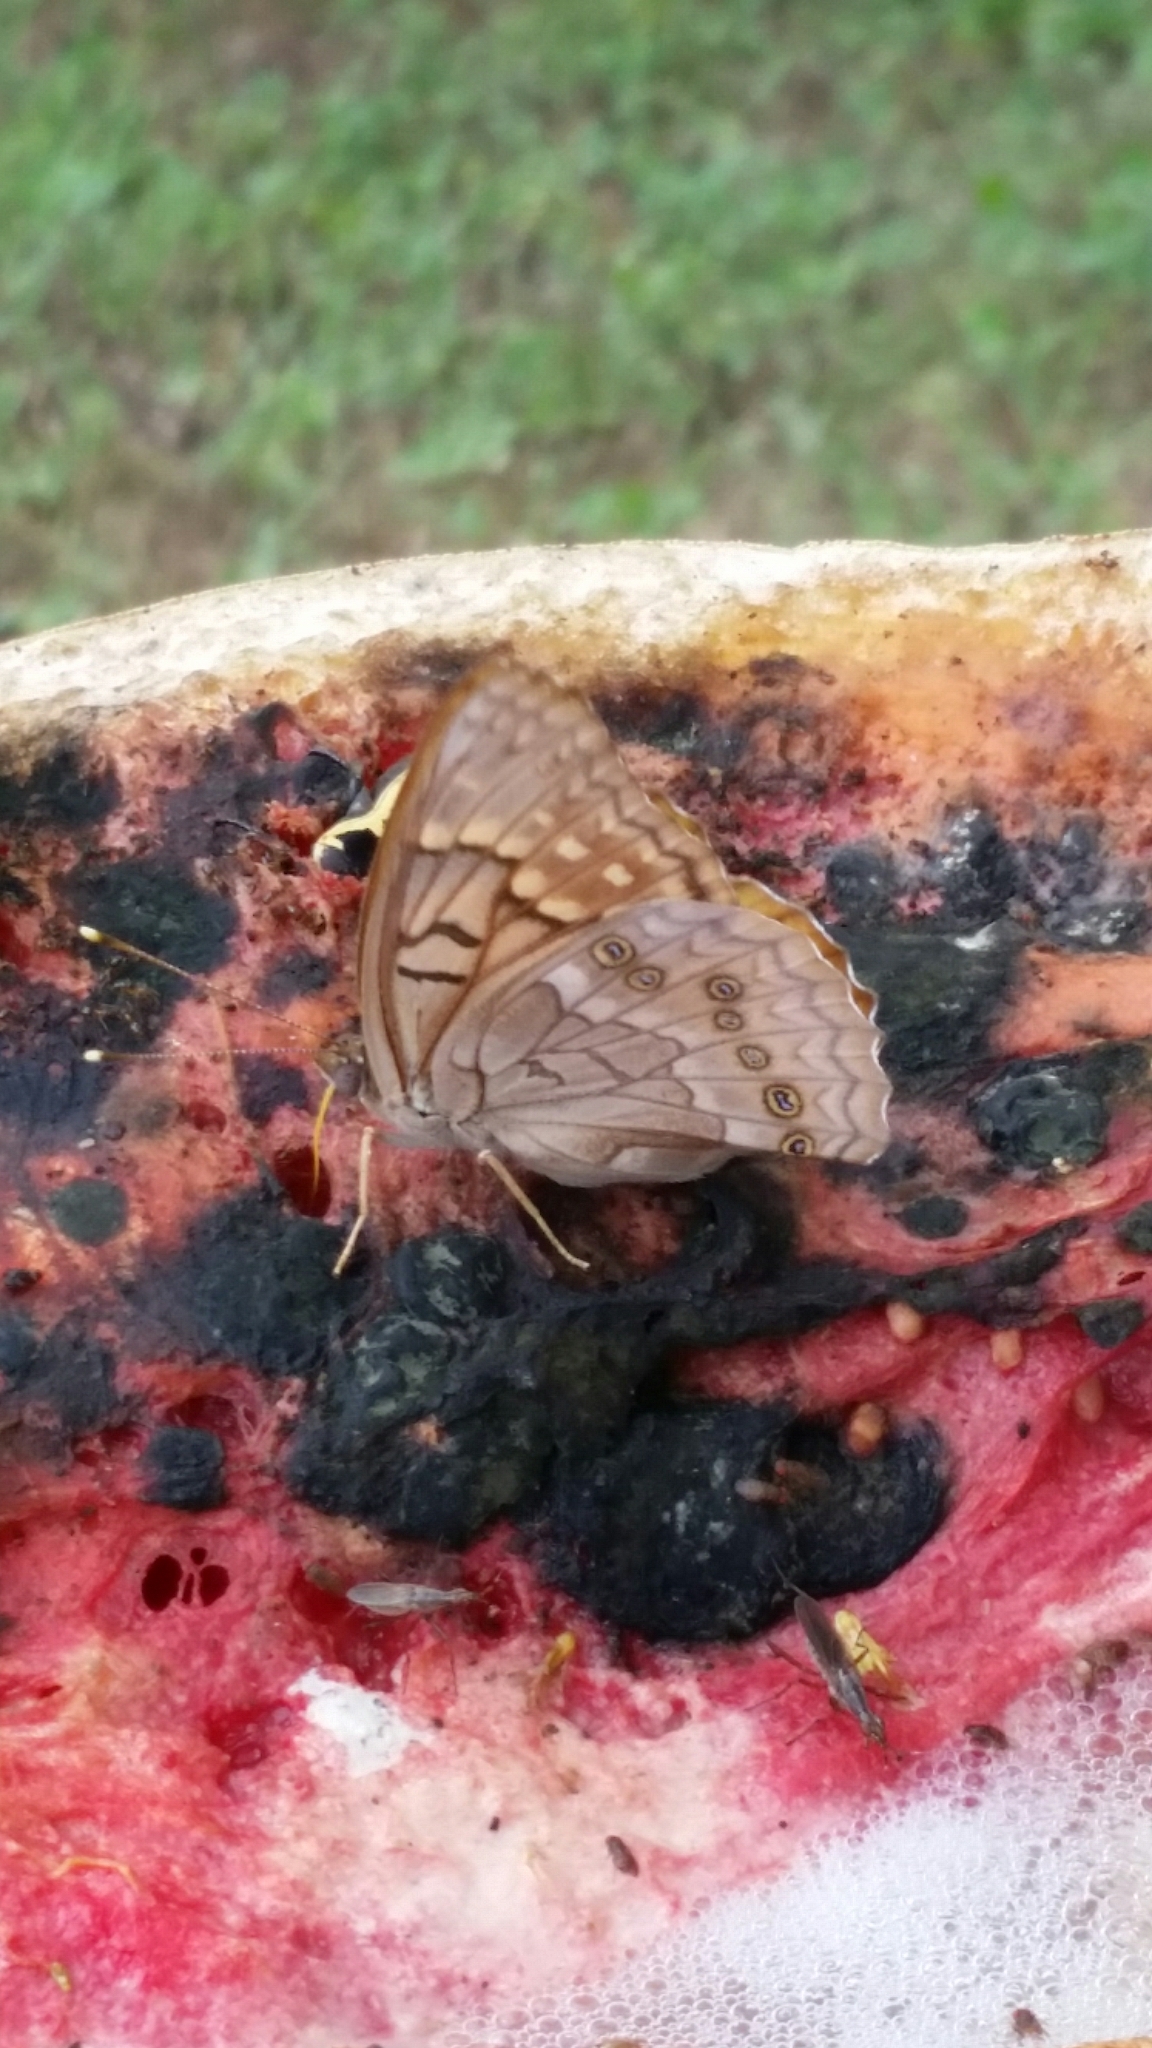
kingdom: Animalia
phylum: Arthropoda
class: Insecta
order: Lepidoptera
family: Nymphalidae
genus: Asterocampa
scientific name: Asterocampa clyton
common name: Tawny emperor
